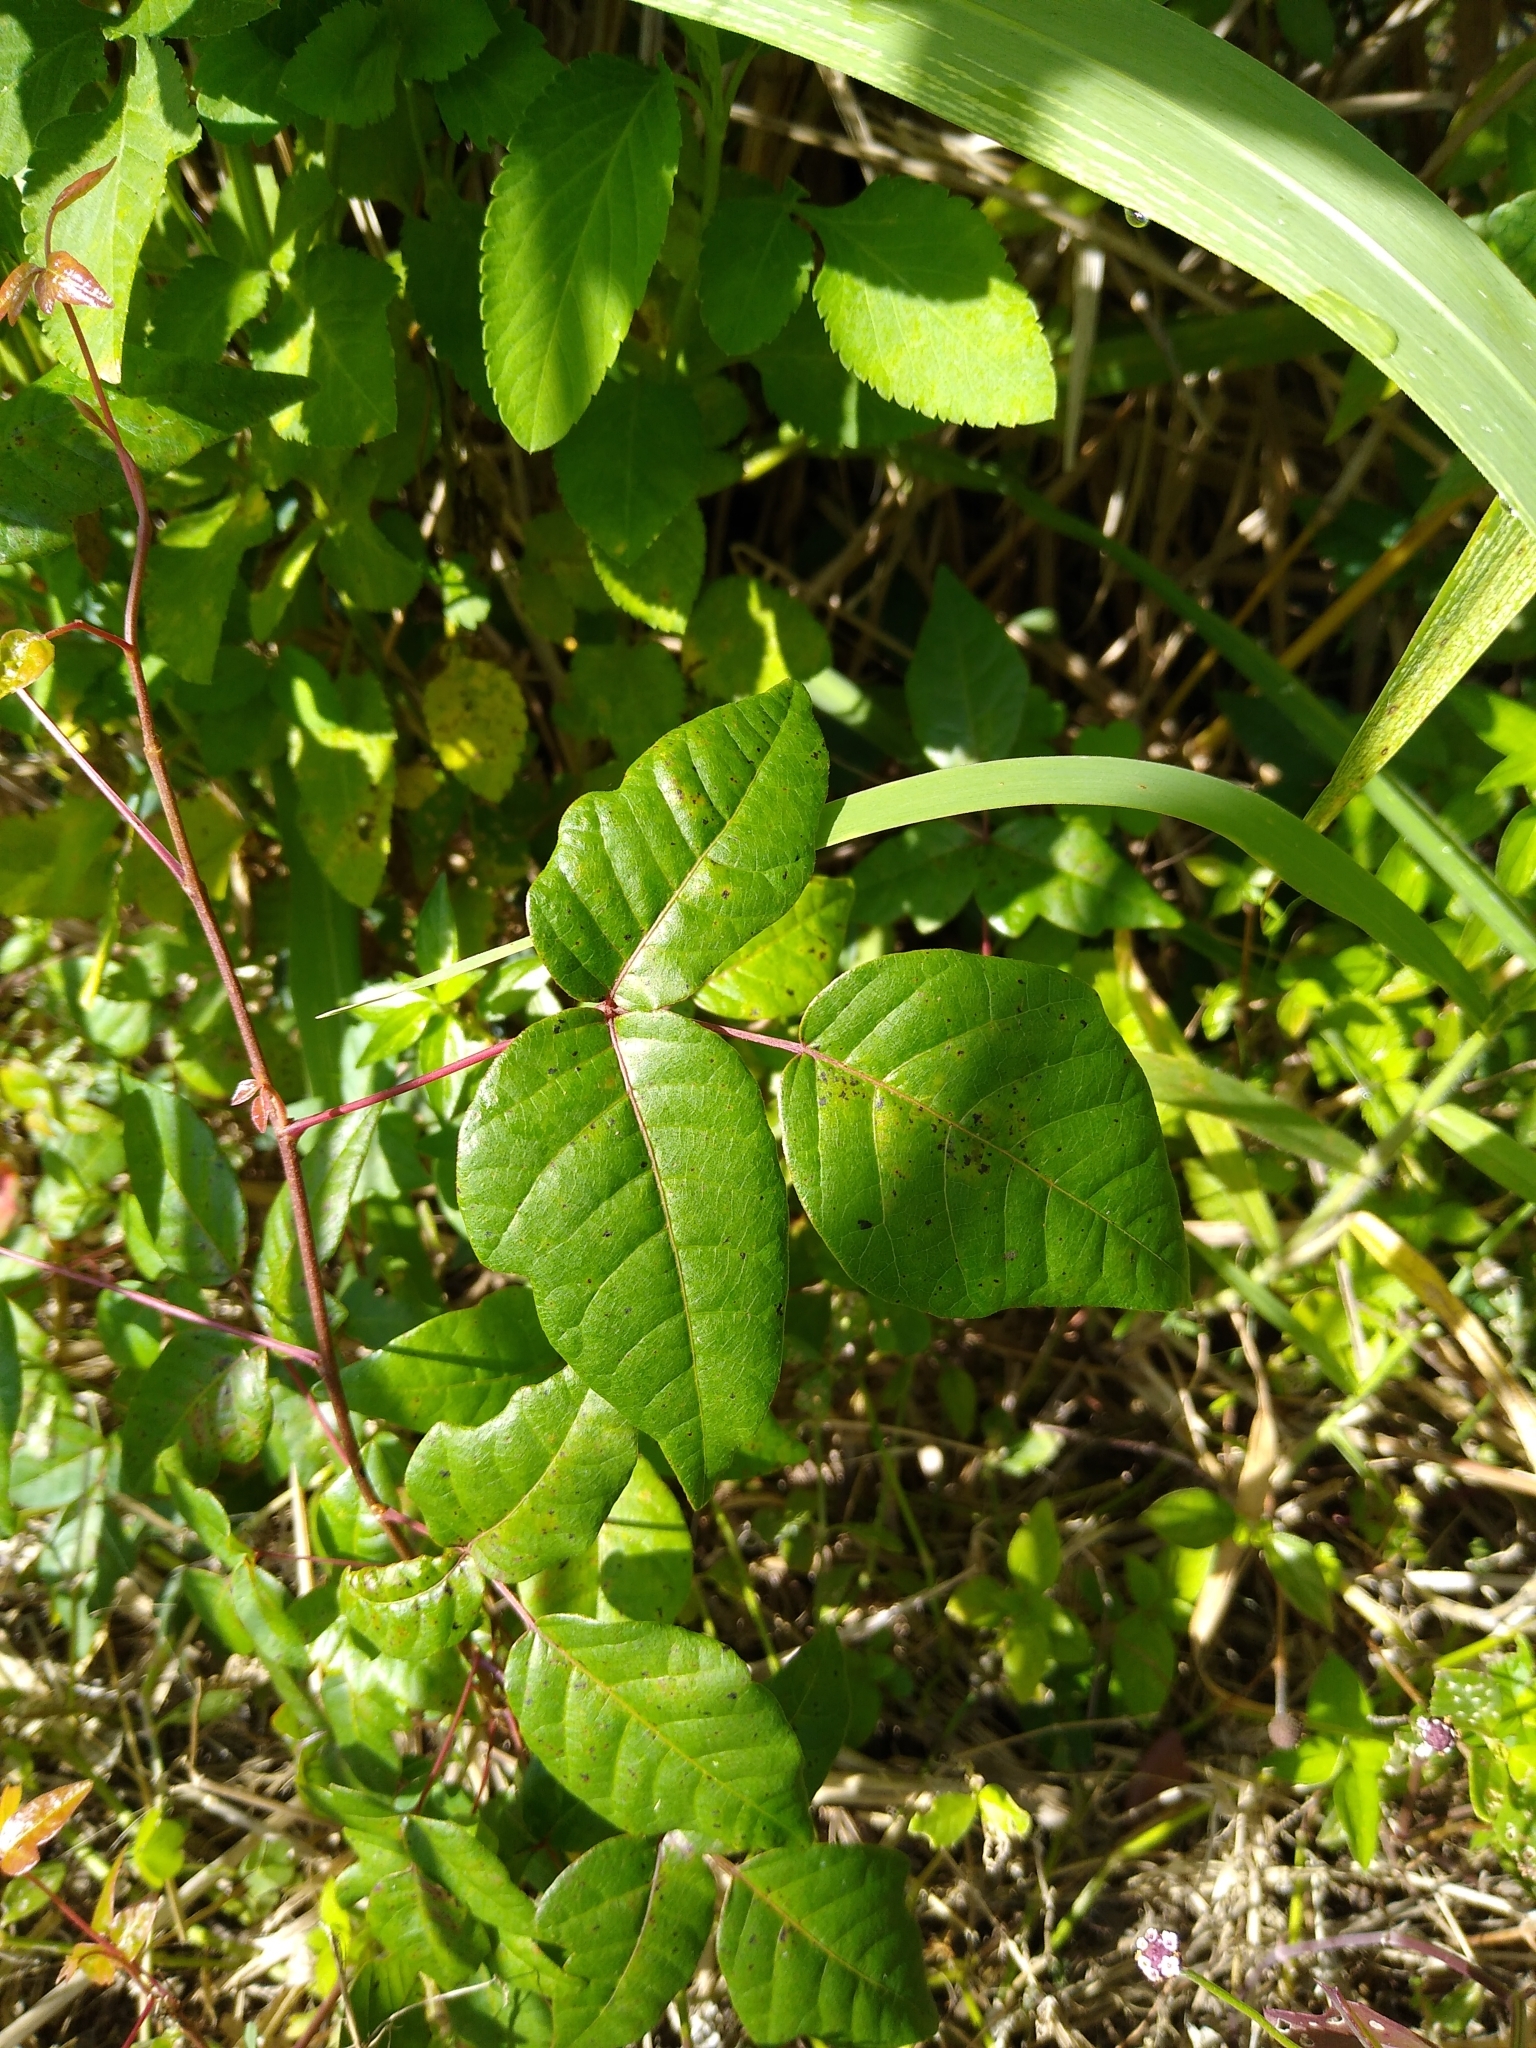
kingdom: Plantae
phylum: Tracheophyta
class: Magnoliopsida
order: Sapindales
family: Anacardiaceae
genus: Toxicodendron
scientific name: Toxicodendron radicans
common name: Poison ivy
